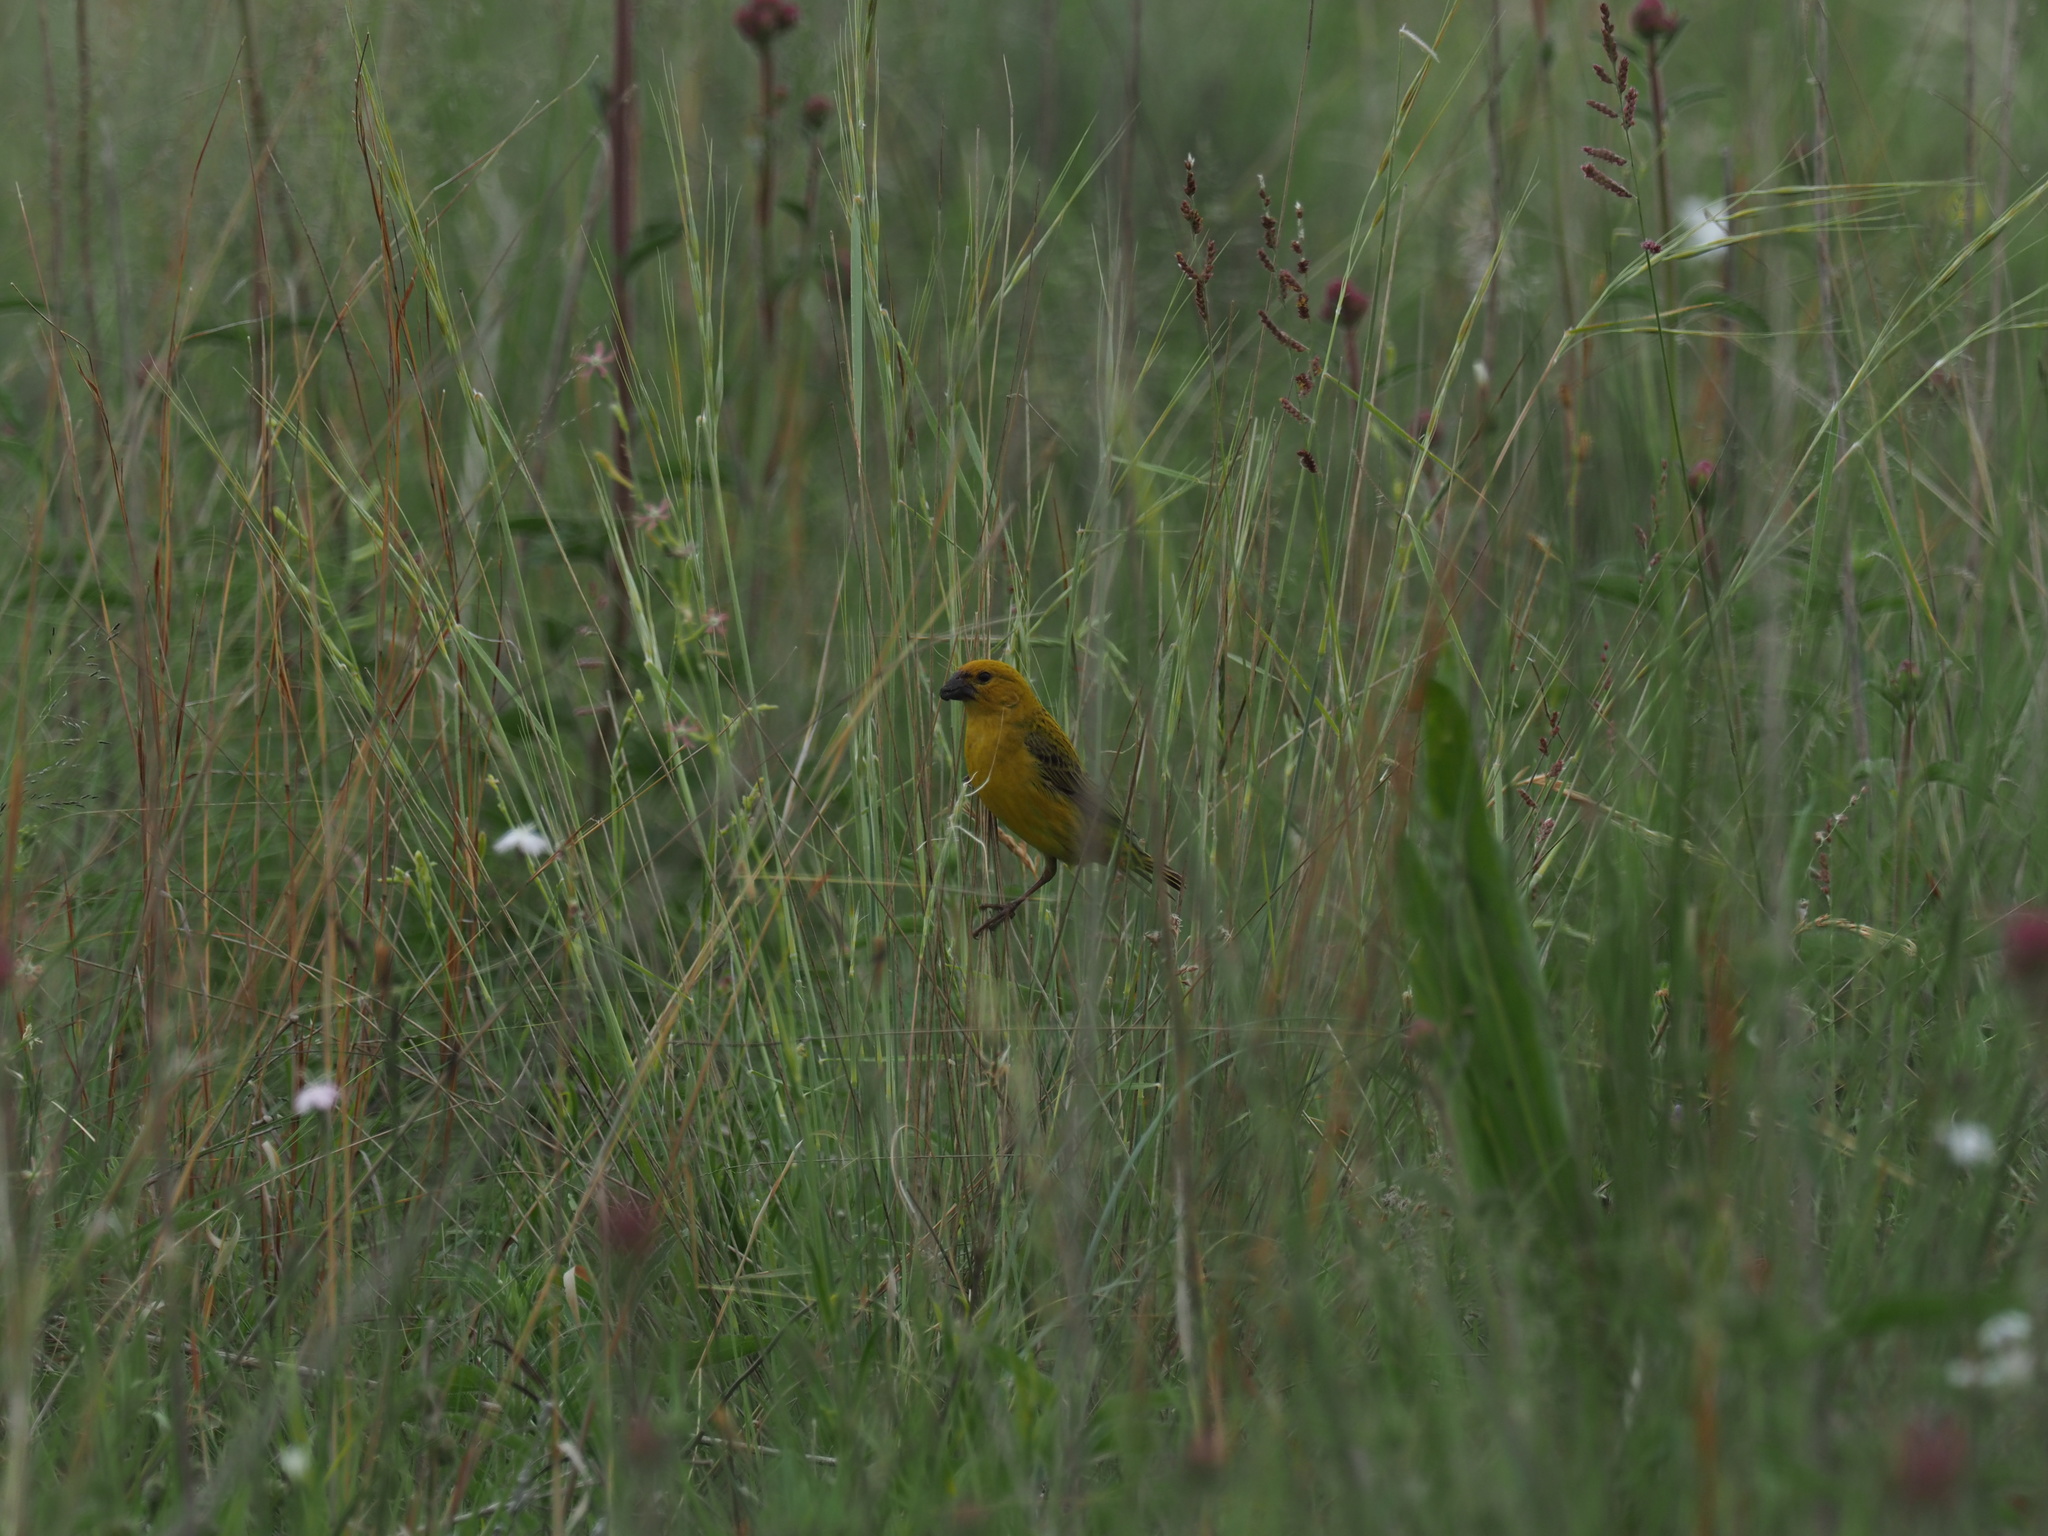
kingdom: Animalia
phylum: Chordata
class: Aves
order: Passeriformes
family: Viduidae
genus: Anomalospiza
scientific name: Anomalospiza imberbis
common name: Cuckoo weaver
